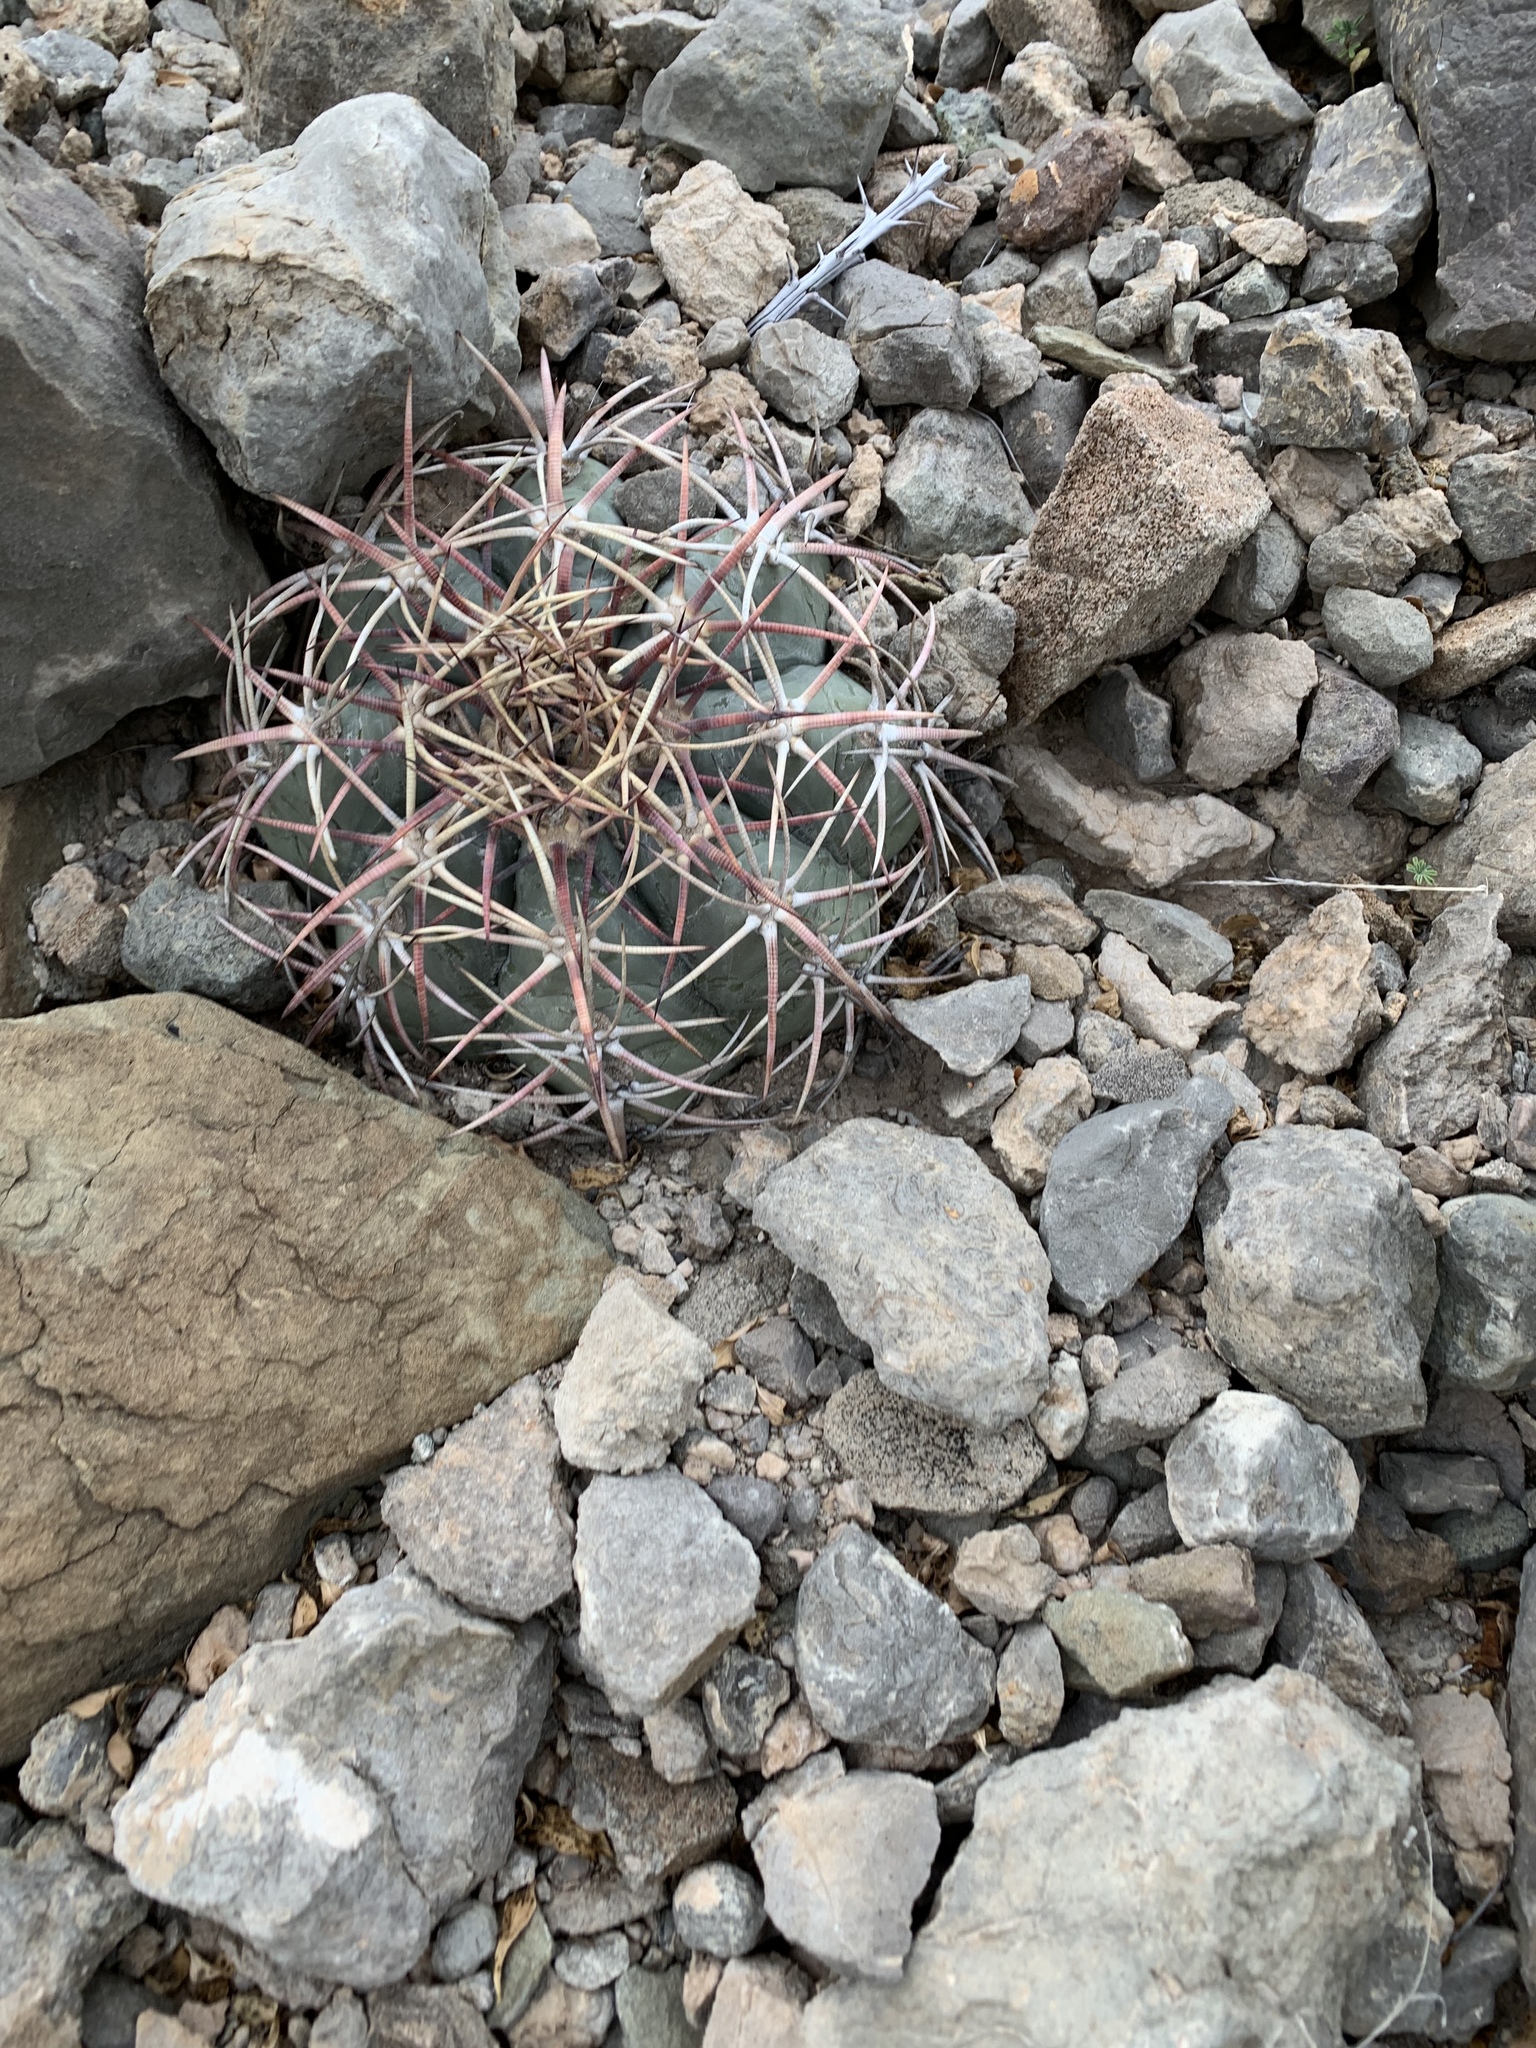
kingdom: Plantae
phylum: Tracheophyta
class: Magnoliopsida
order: Caryophyllales
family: Cactaceae
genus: Echinocactus
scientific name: Echinocactus horizonthalonius
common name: Devilshead
